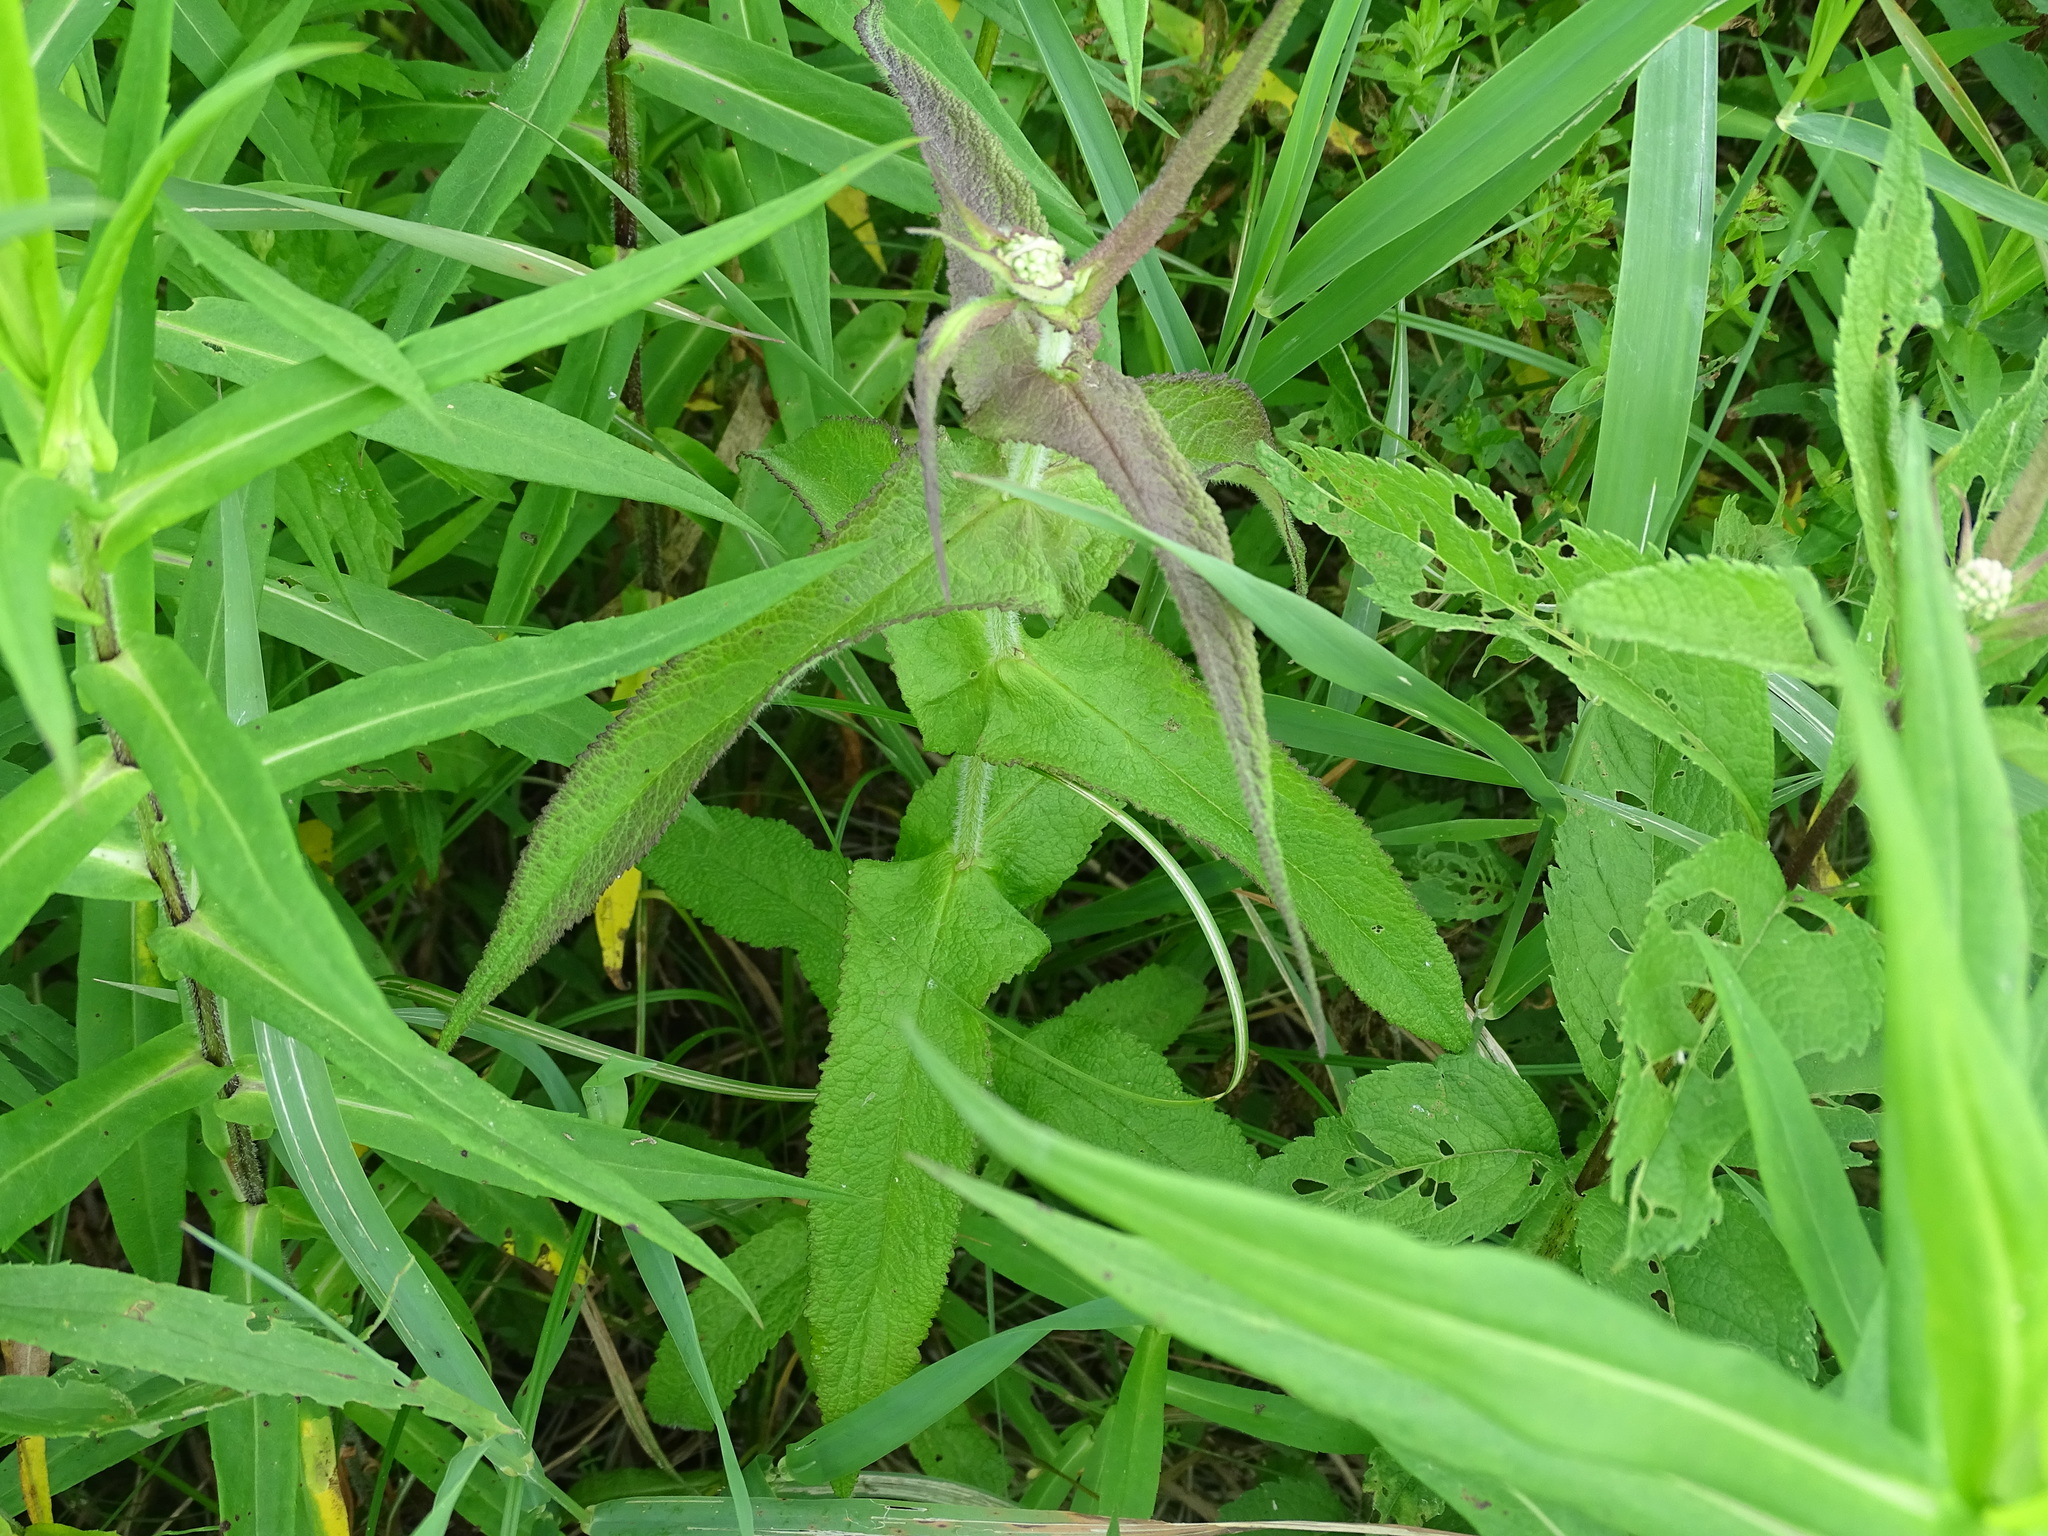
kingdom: Plantae
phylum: Tracheophyta
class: Magnoliopsida
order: Asterales
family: Asteraceae
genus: Eupatorium
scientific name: Eupatorium perfoliatum
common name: Boneset
